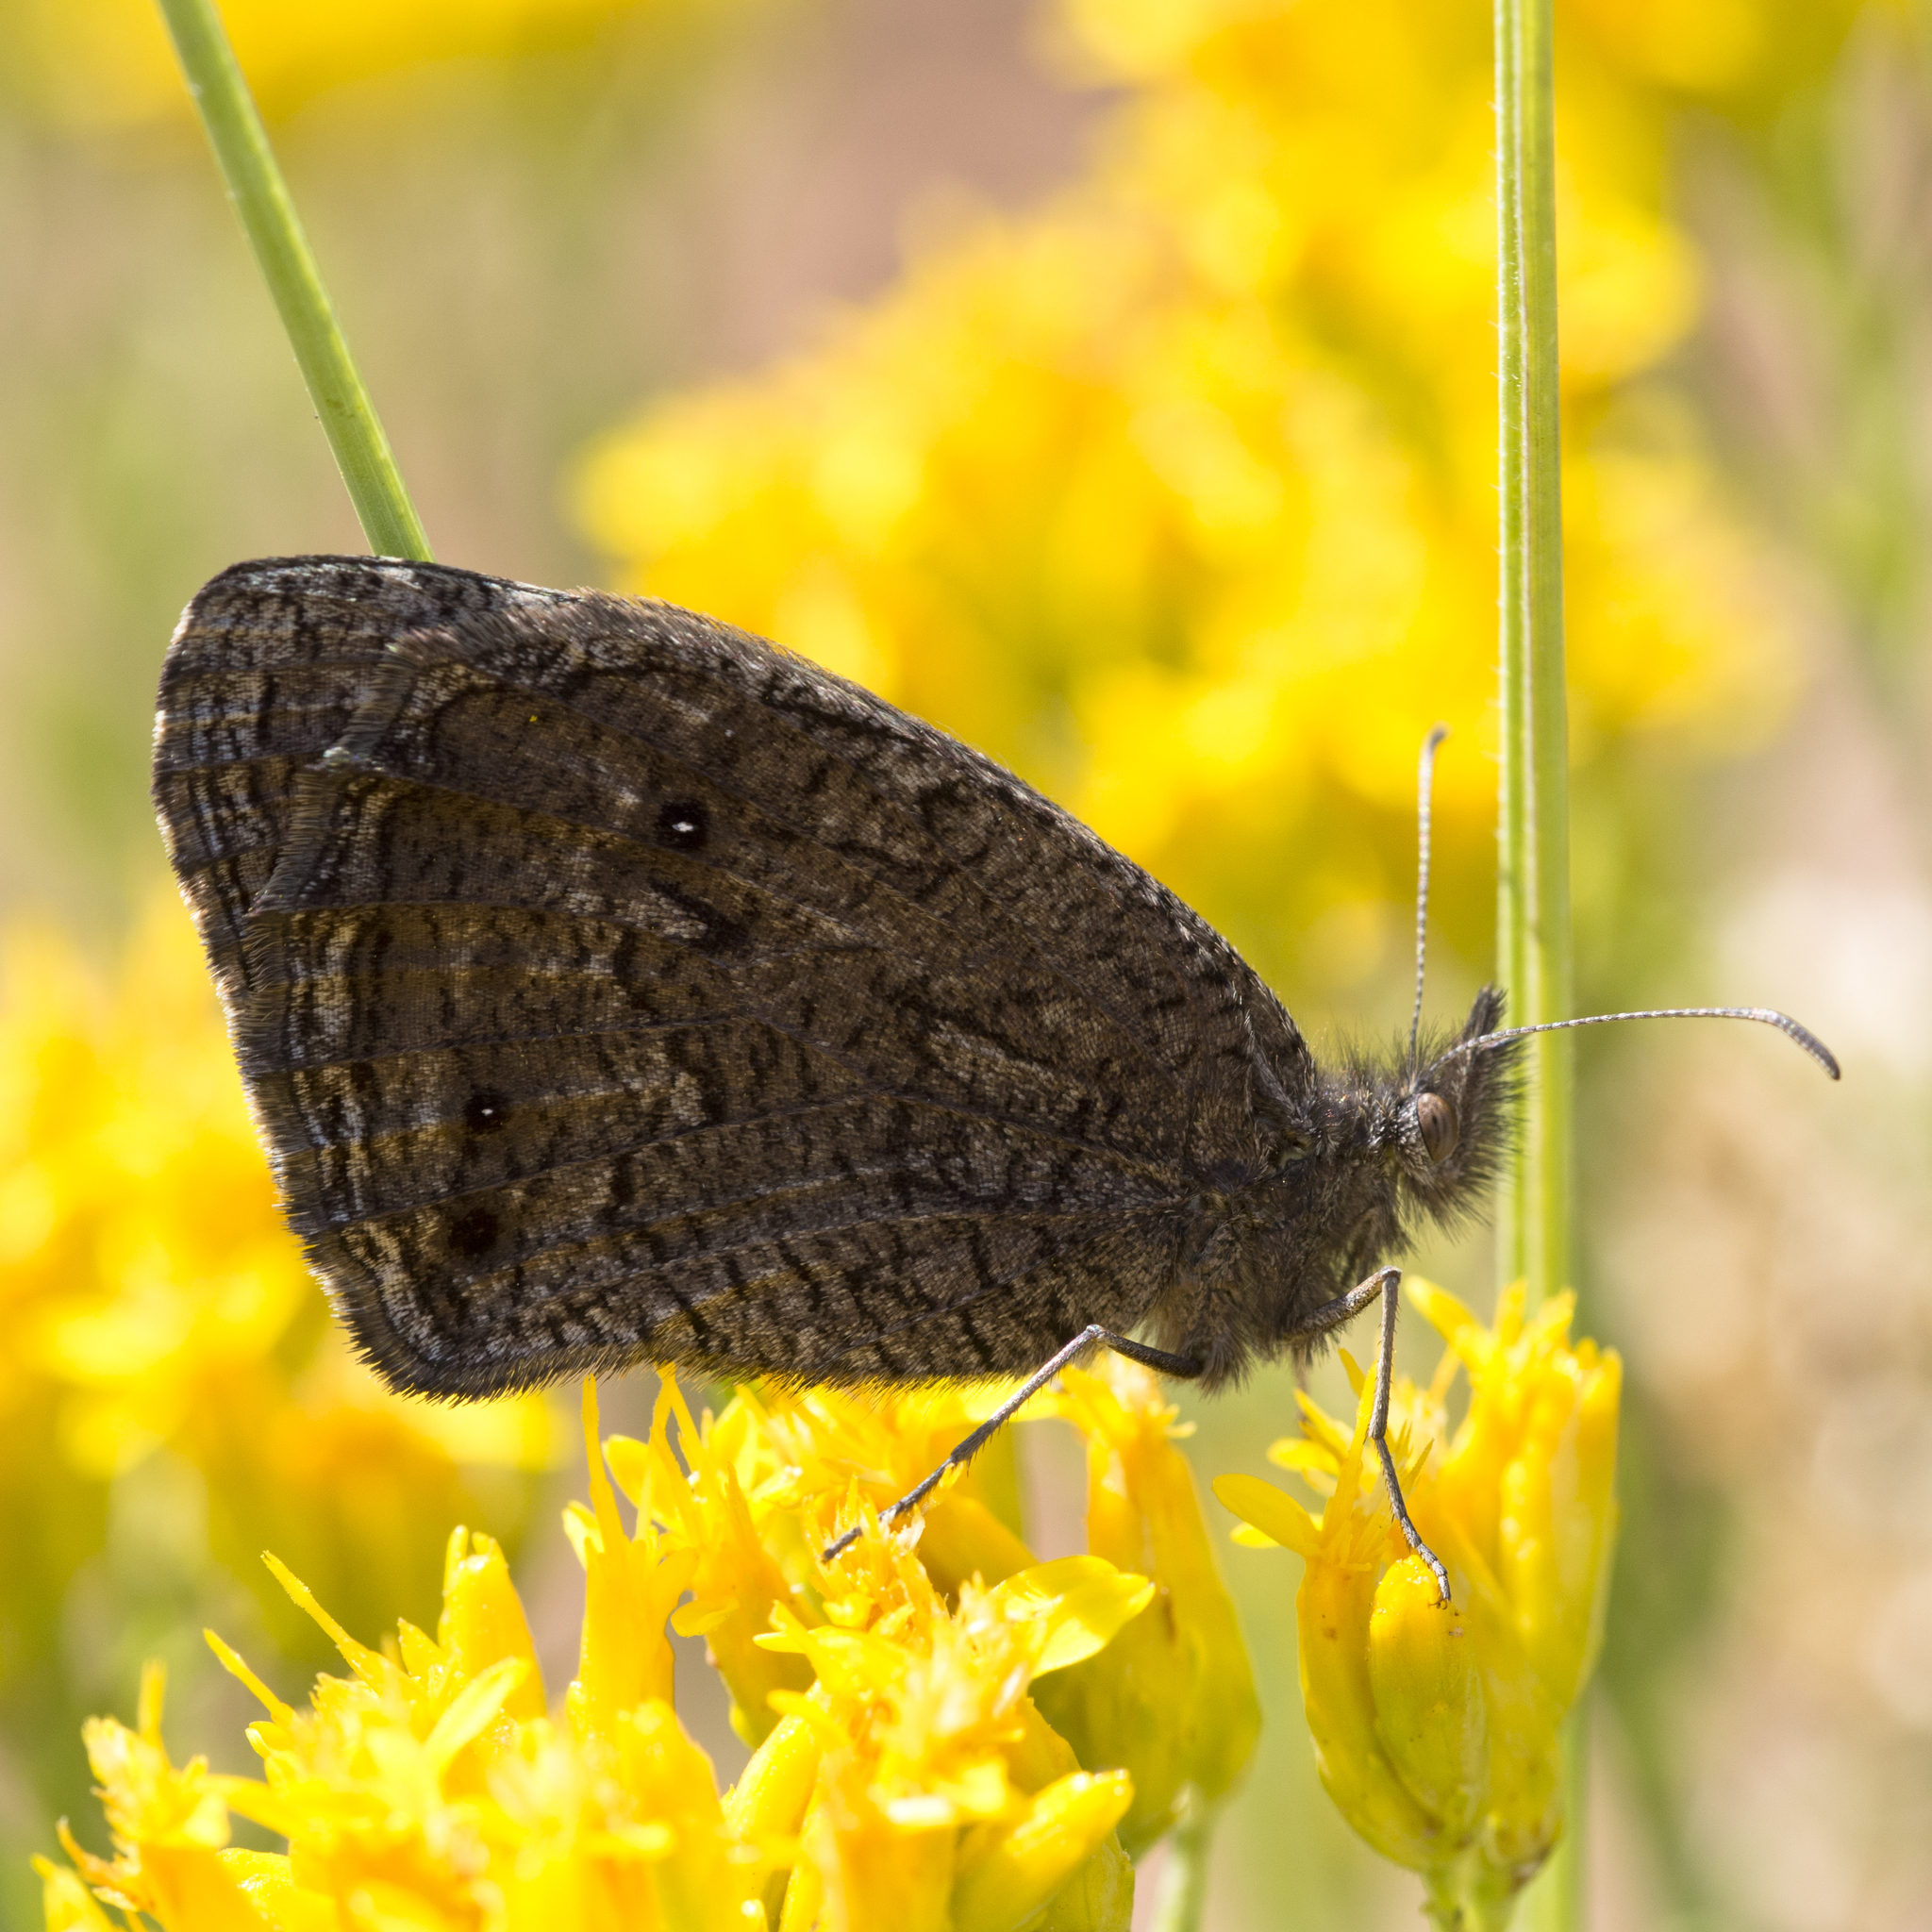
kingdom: Animalia
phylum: Arthropoda
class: Insecta
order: Lepidoptera
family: Nymphalidae
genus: Cercyonis
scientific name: Cercyonis oetus
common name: Small wood-nymph
